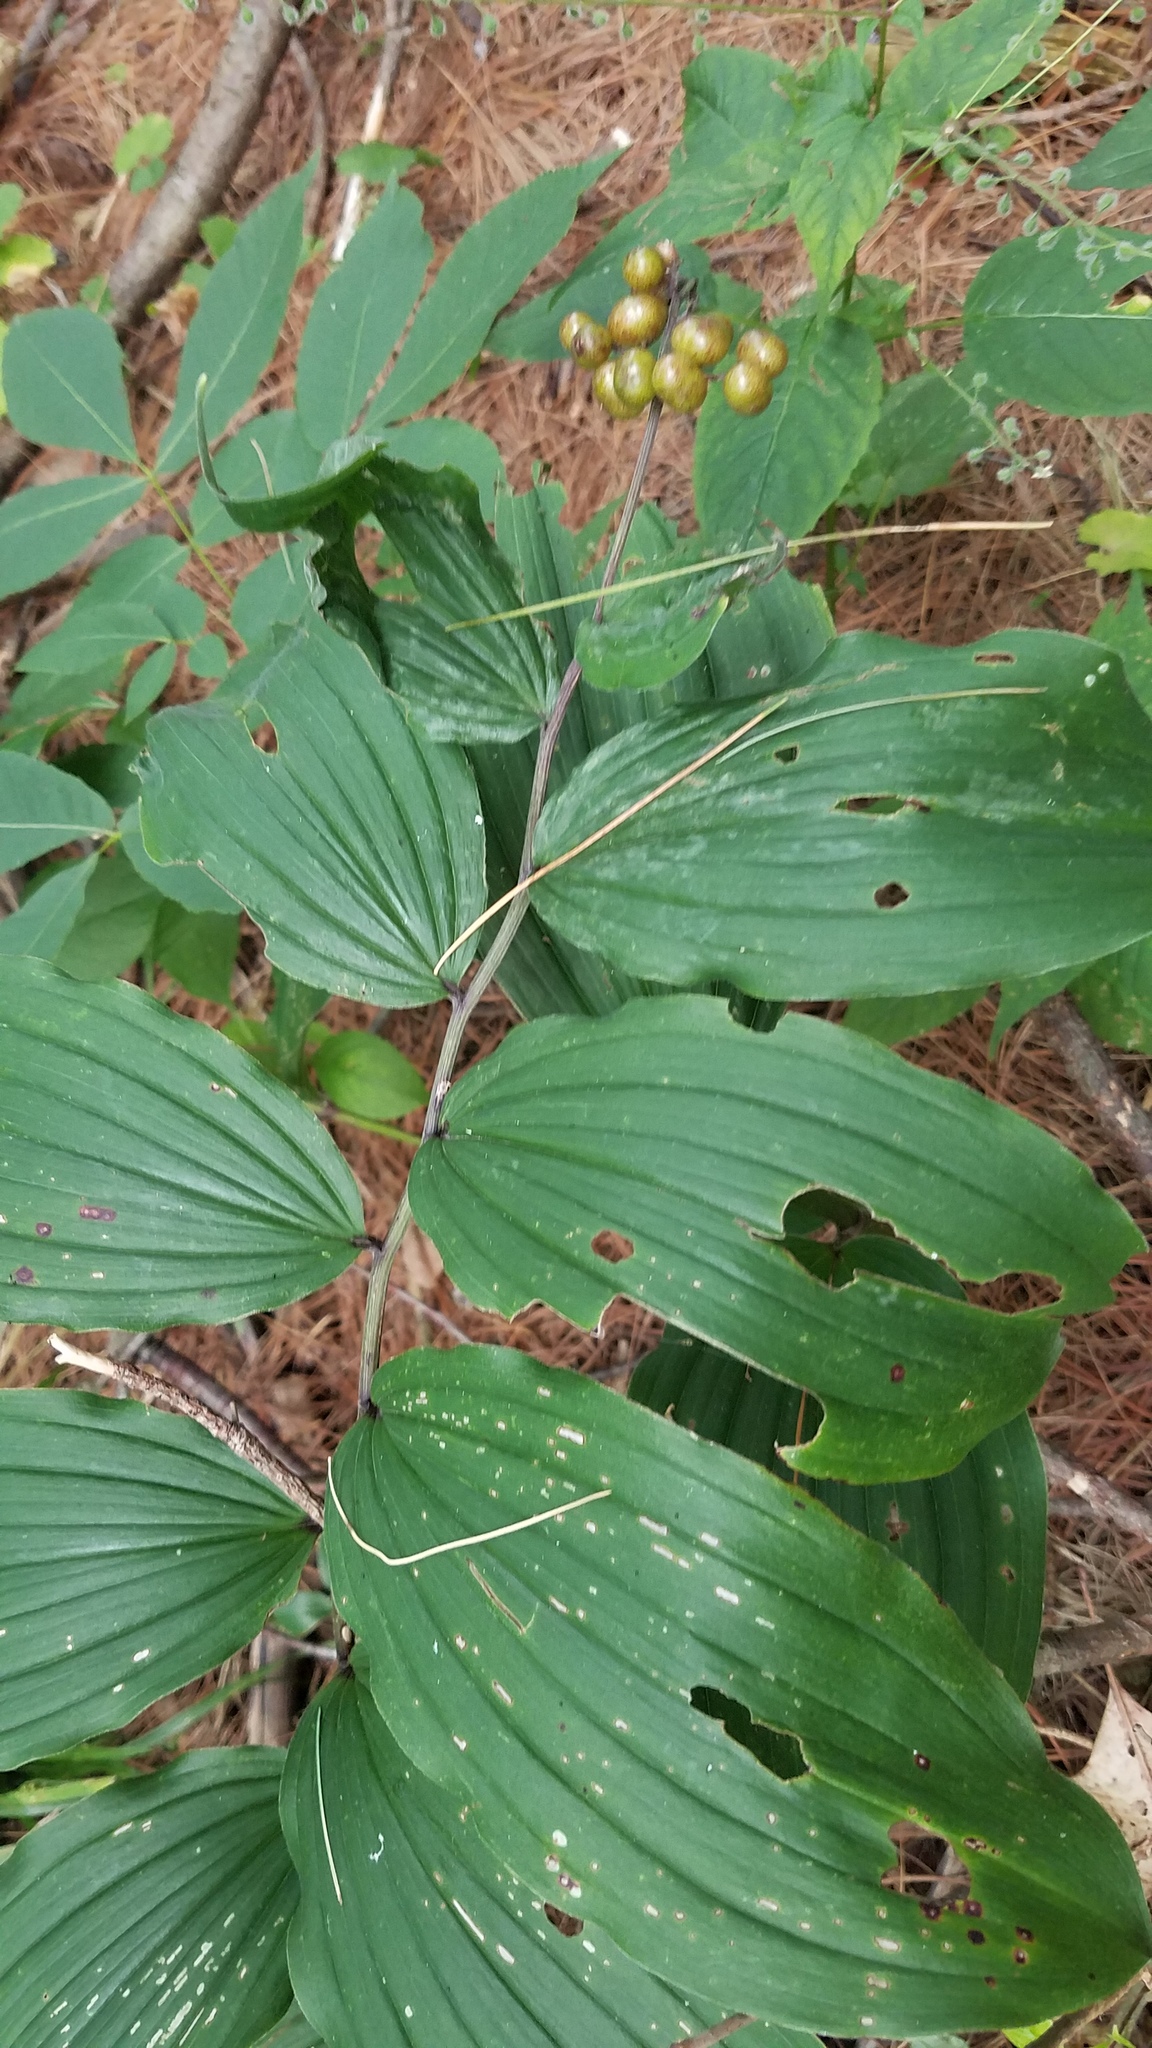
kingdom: Plantae
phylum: Tracheophyta
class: Liliopsida
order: Asparagales
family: Asparagaceae
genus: Maianthemum
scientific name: Maianthemum racemosum
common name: False spikenard
